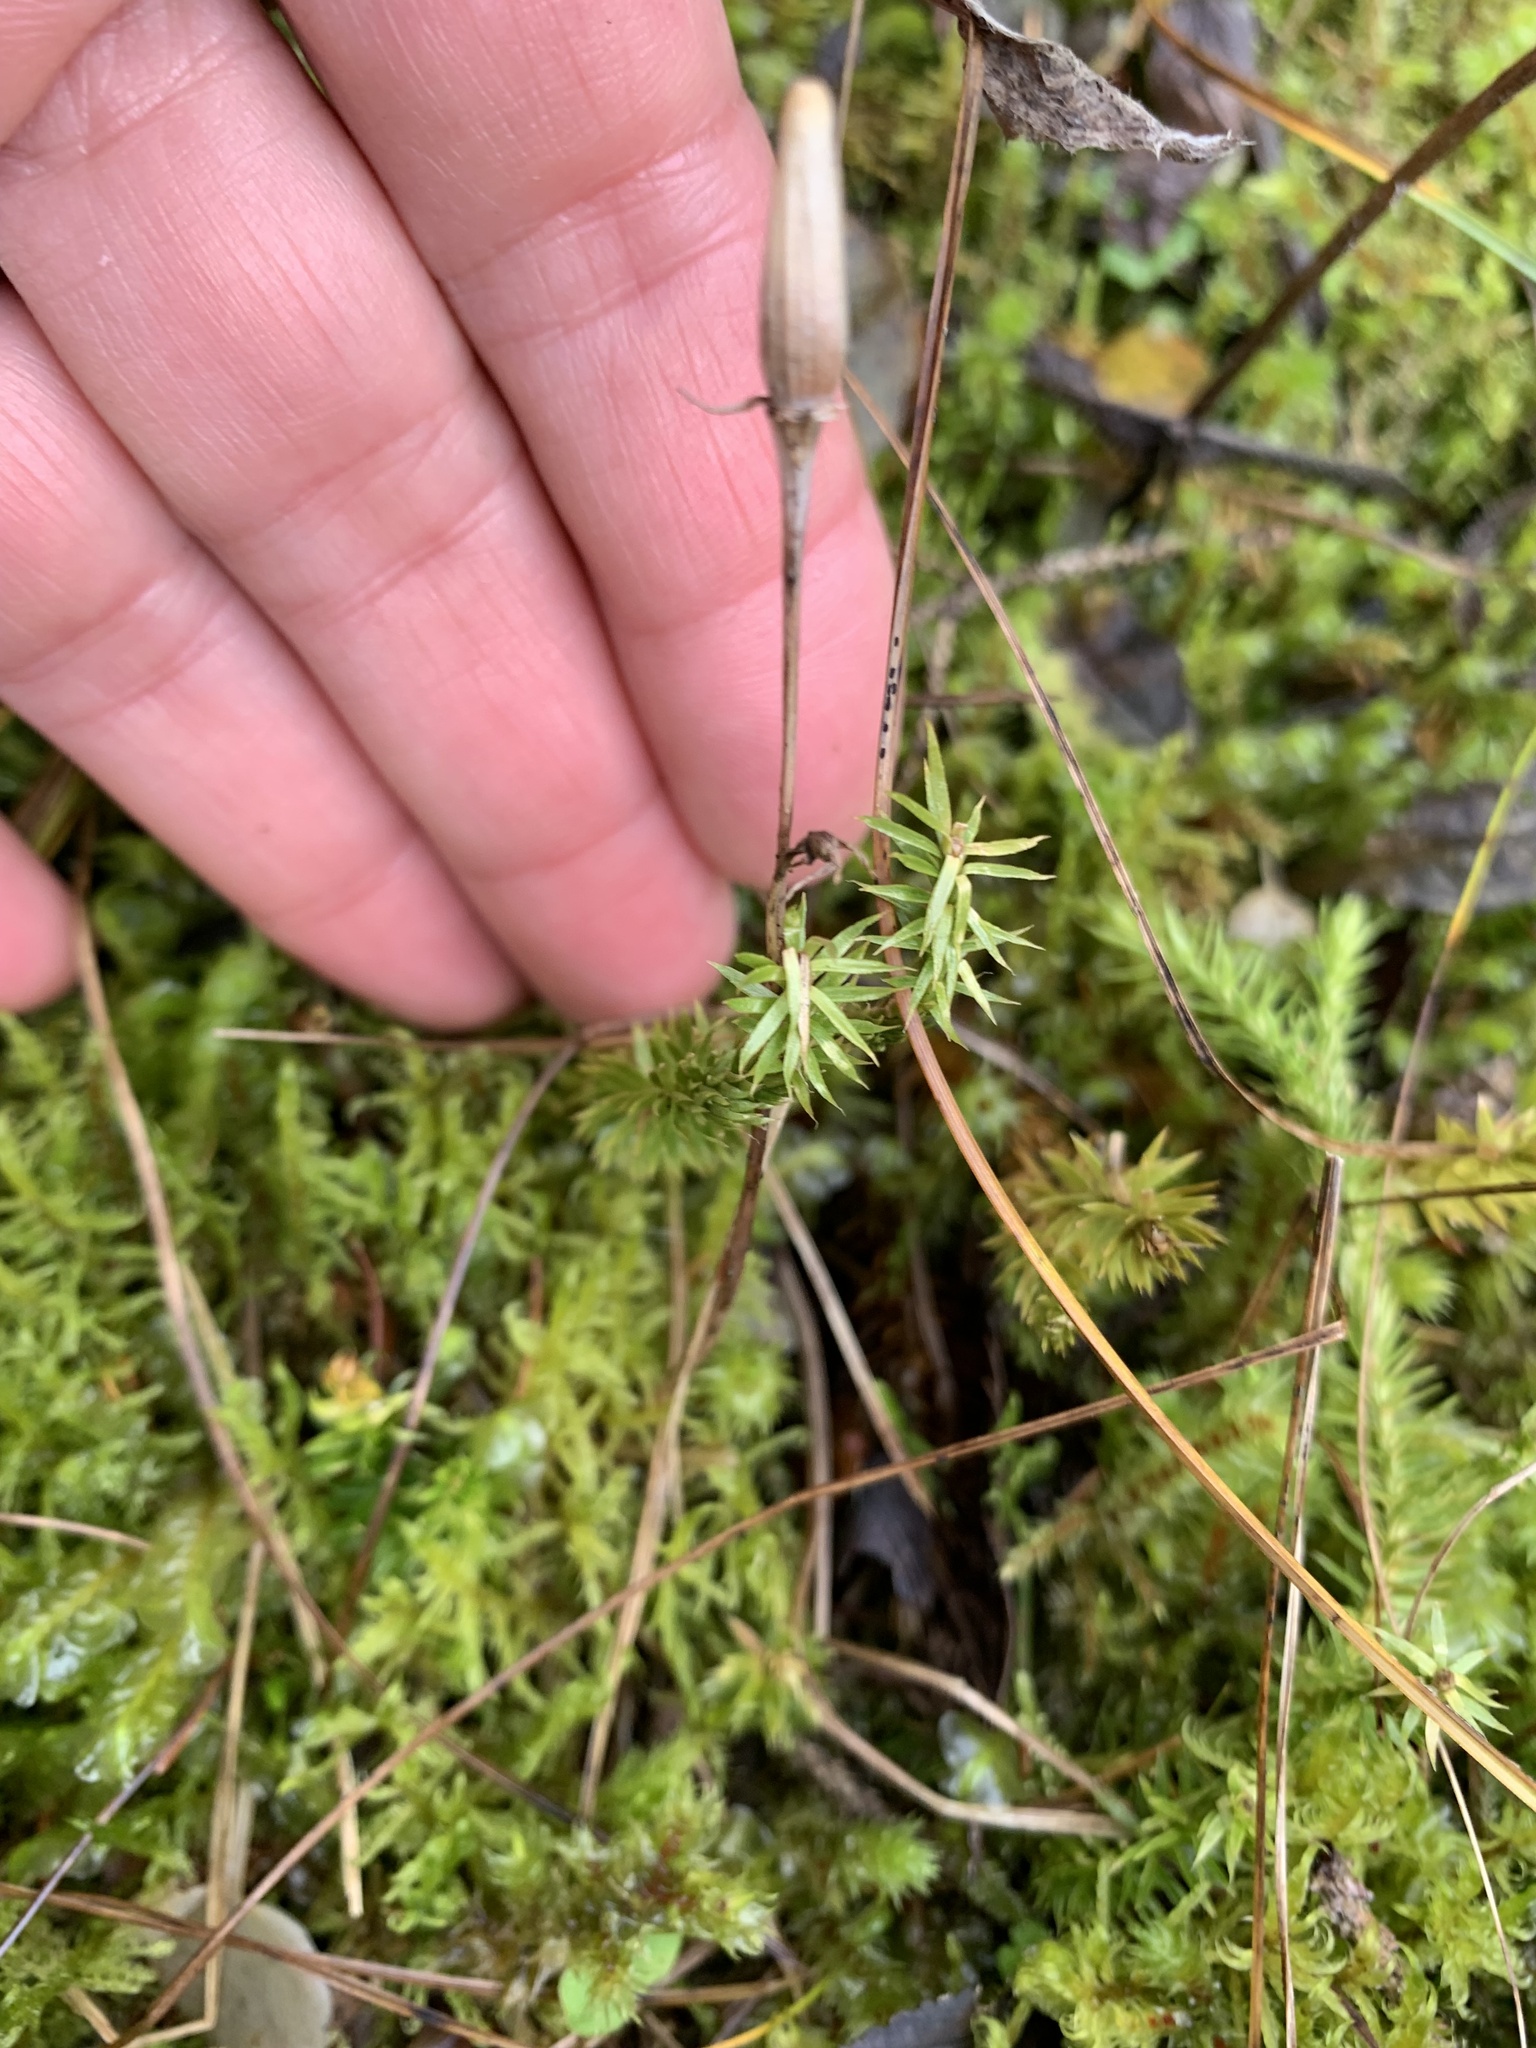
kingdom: Plantae
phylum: Tracheophyta
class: Lycopodiopsida
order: Lycopodiales
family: Lycopodiaceae
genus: Spinulum
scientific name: Spinulum annotinum
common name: Interrupted club-moss
